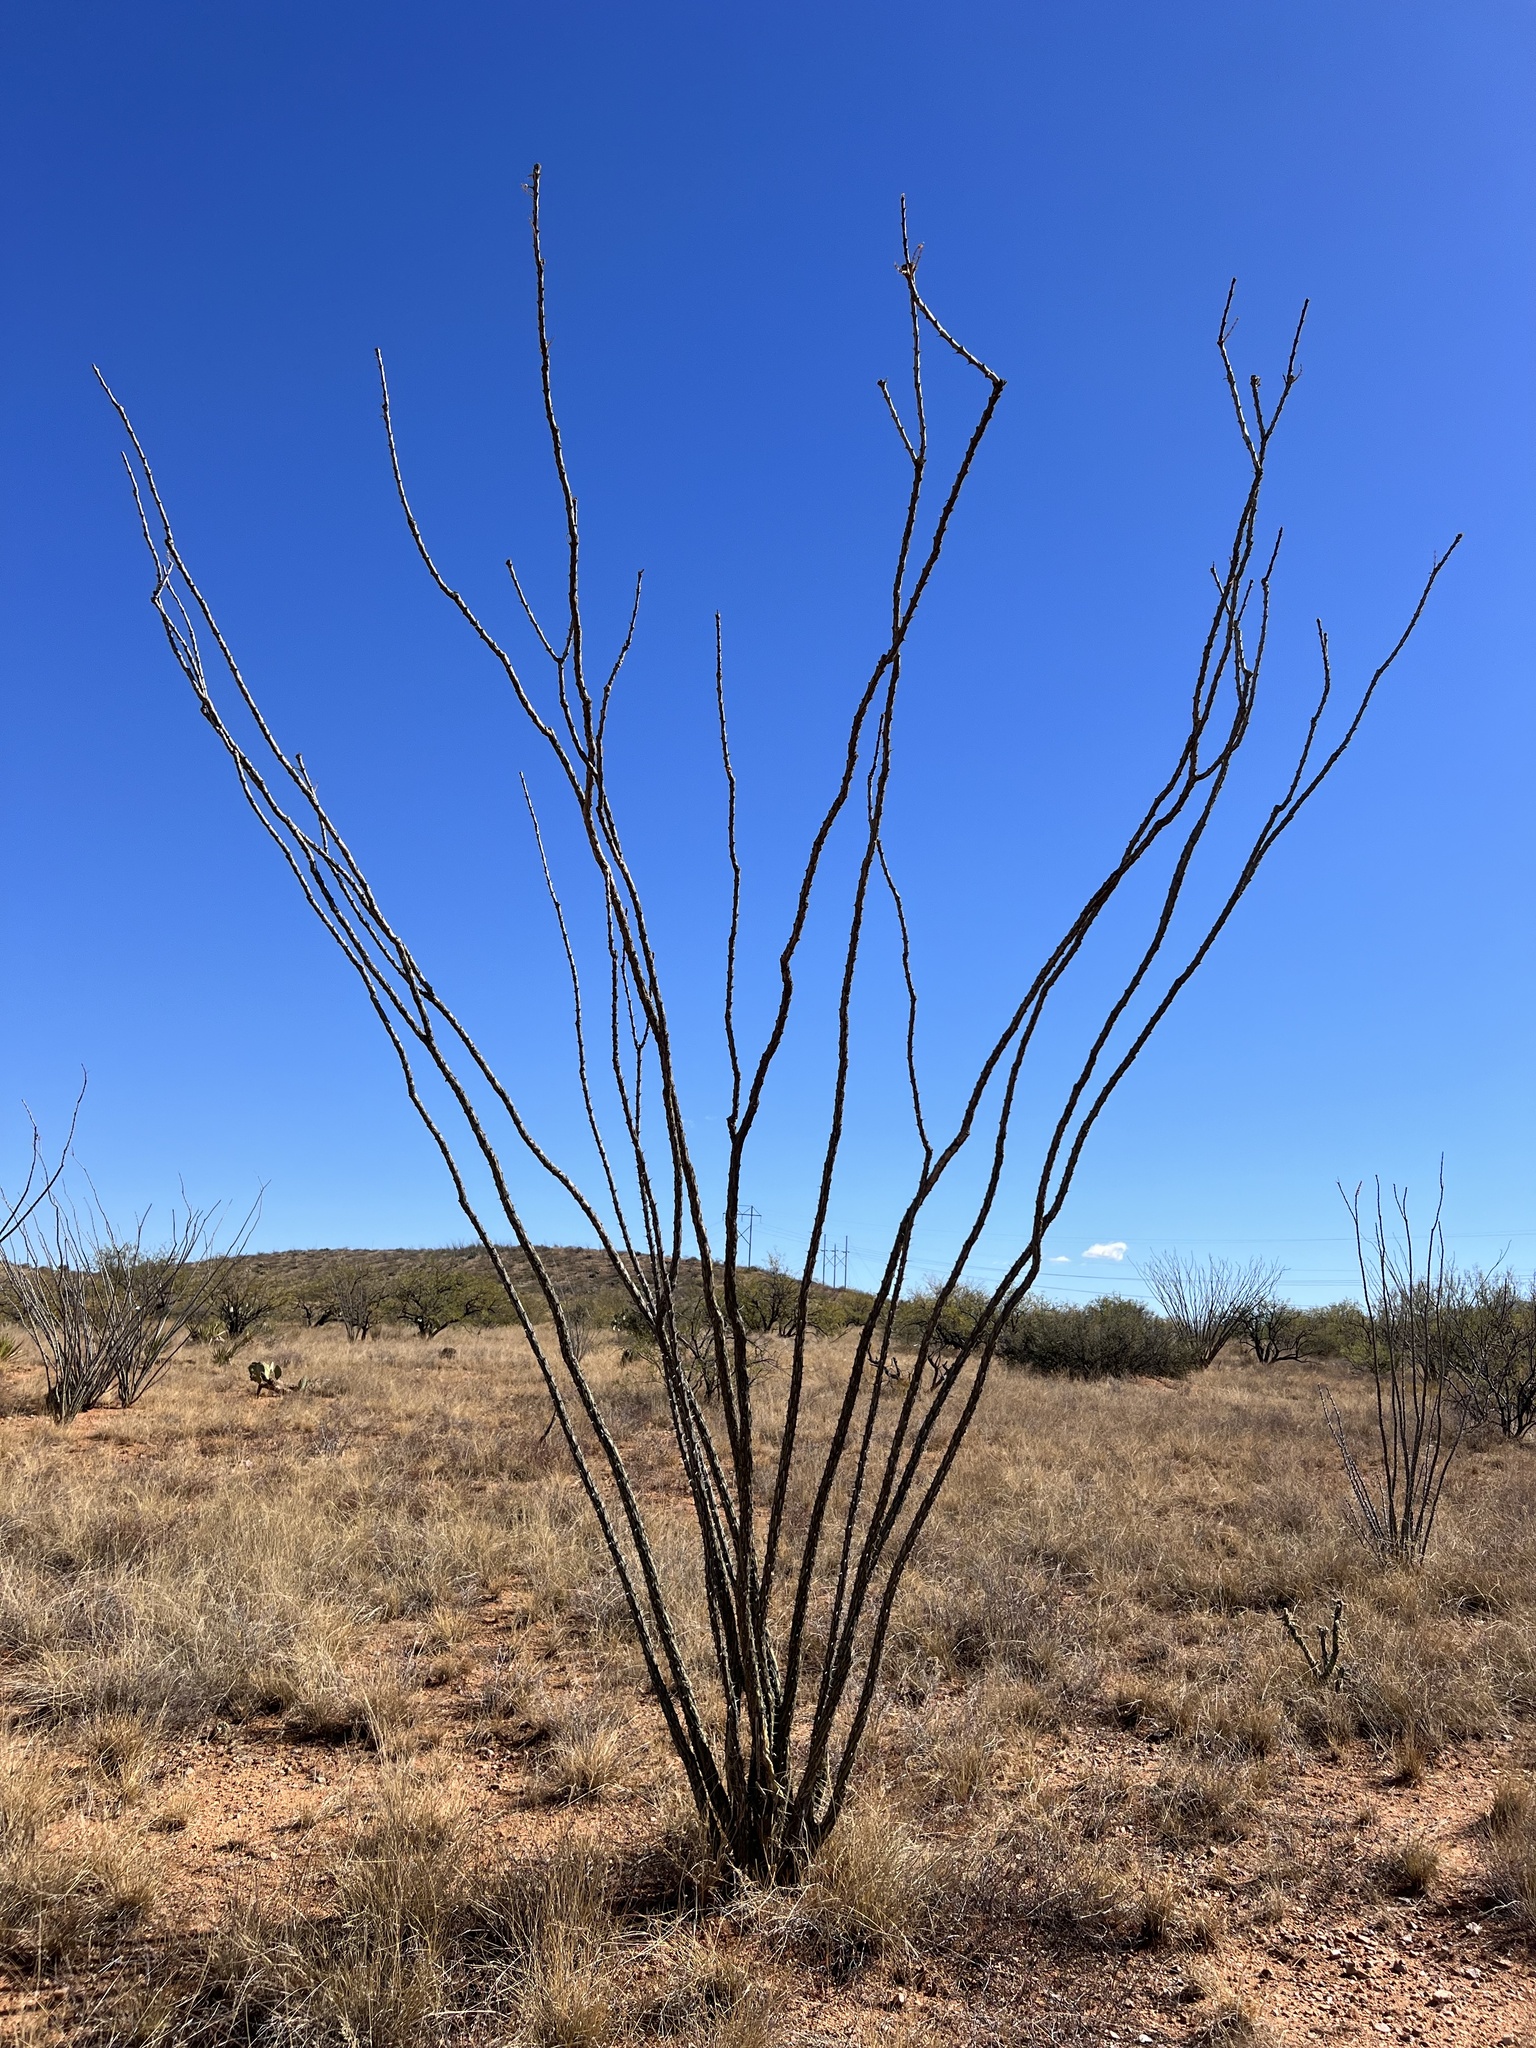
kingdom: Plantae
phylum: Tracheophyta
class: Magnoliopsida
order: Ericales
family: Fouquieriaceae
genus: Fouquieria
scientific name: Fouquieria splendens
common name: Vine-cactus
